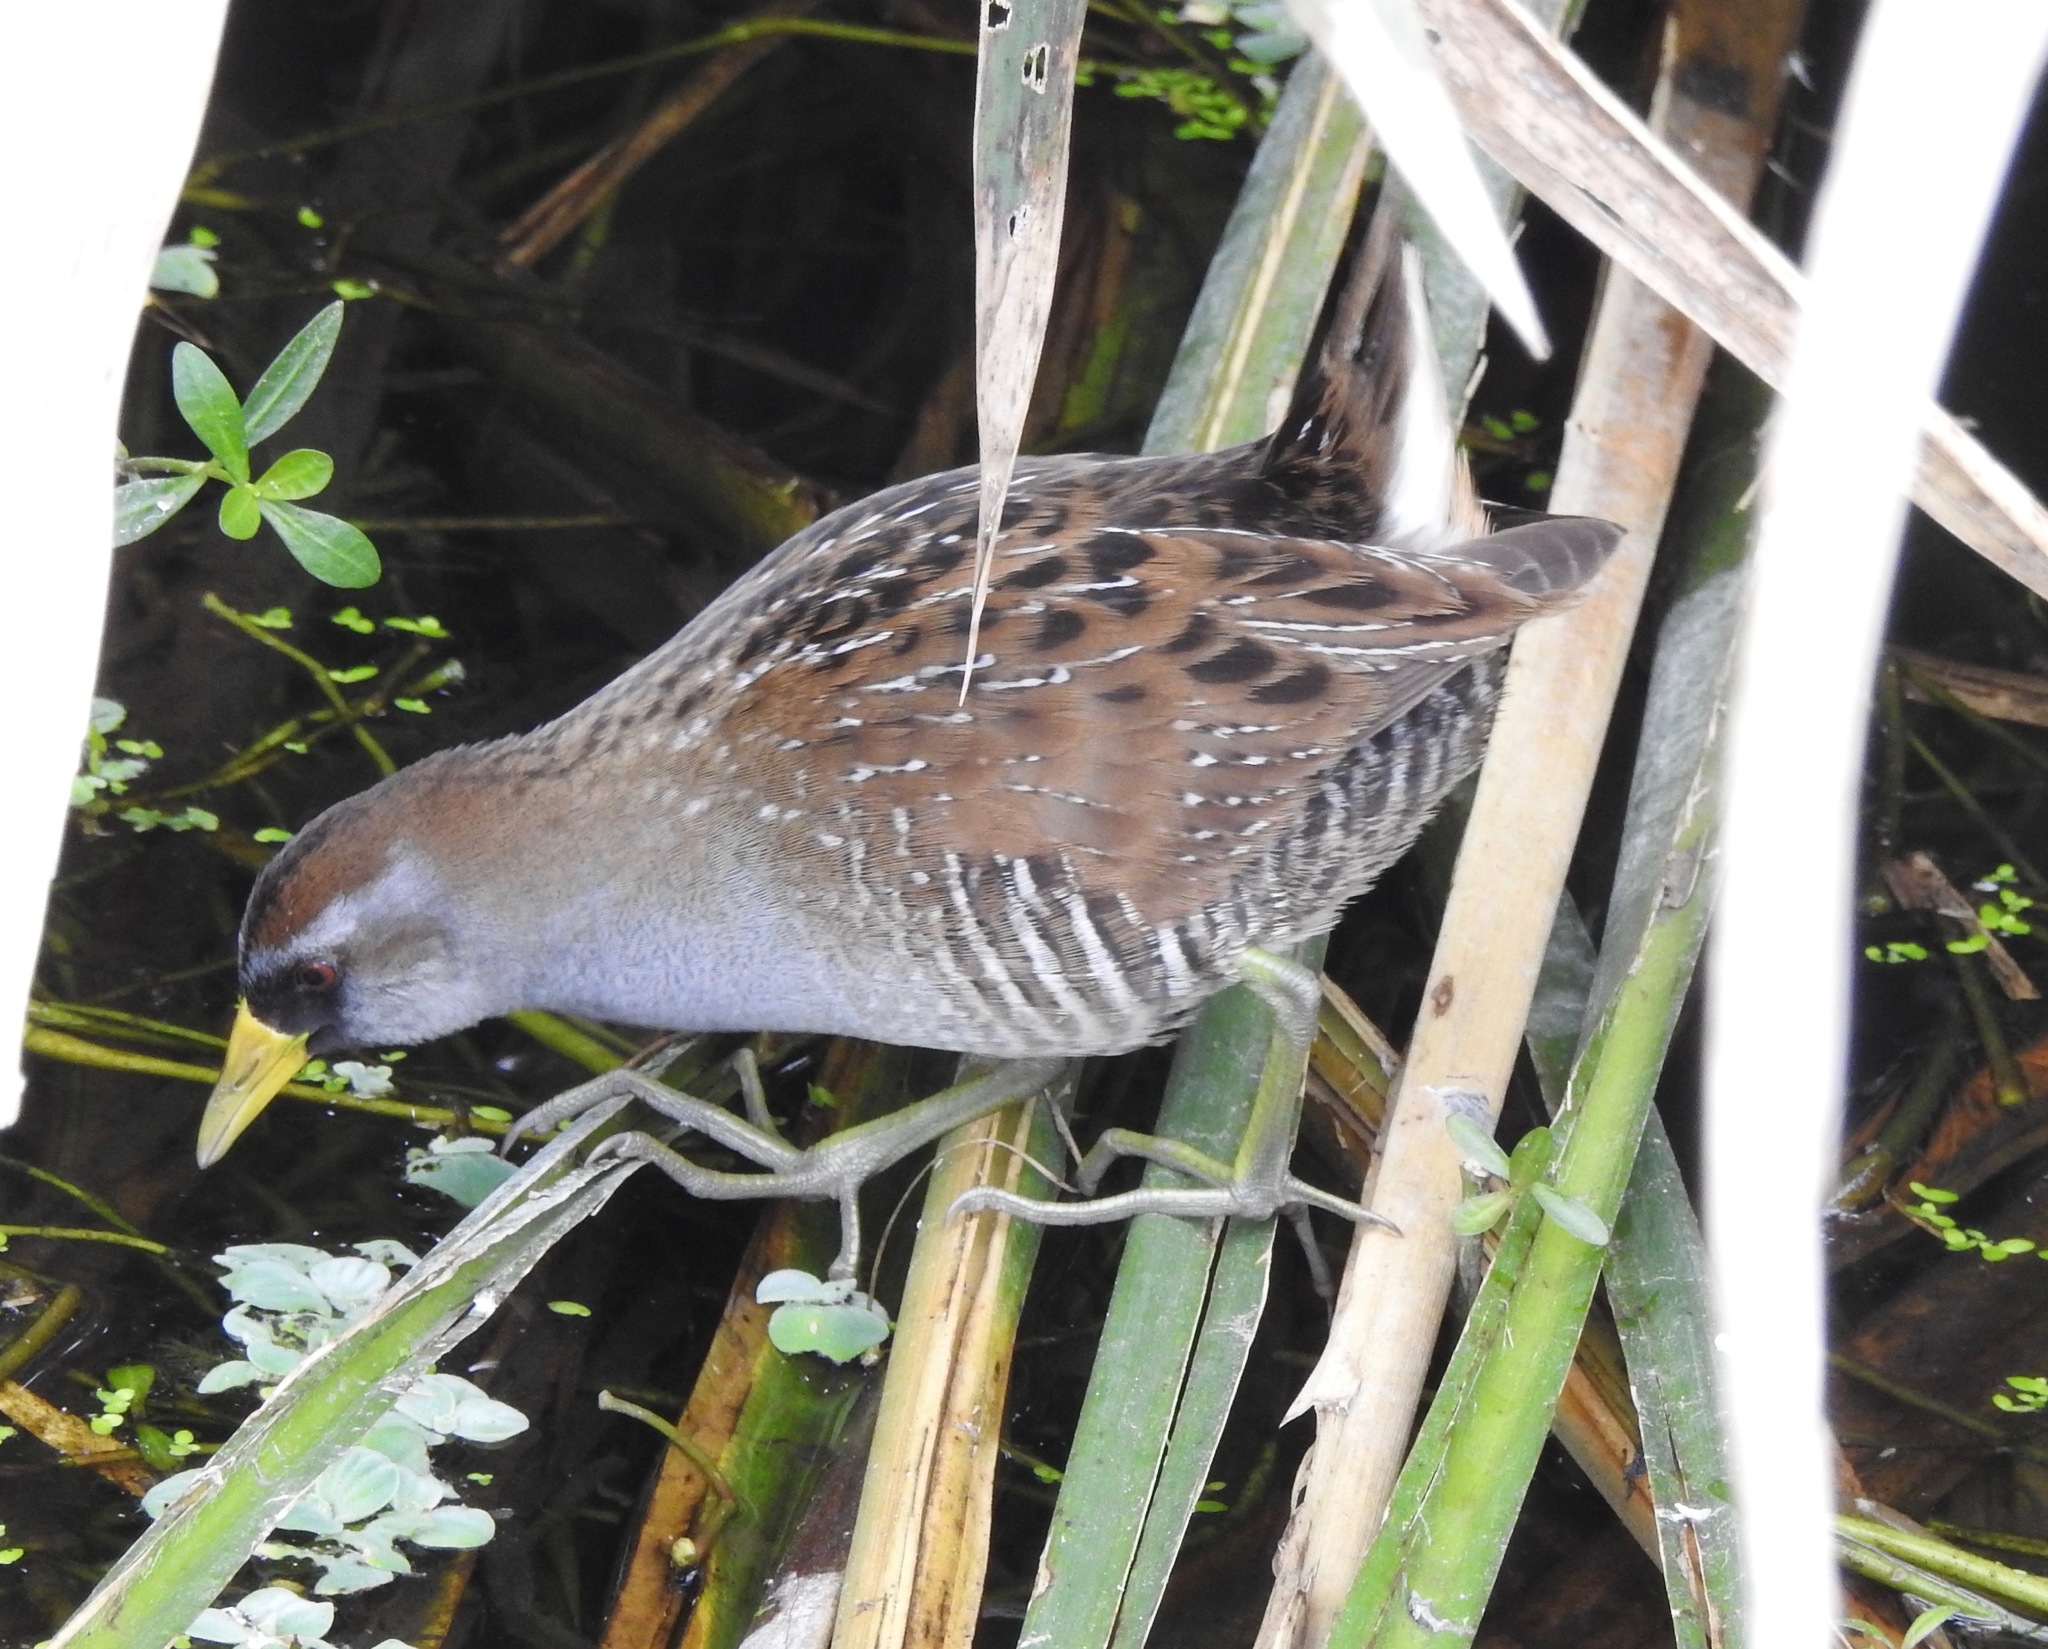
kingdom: Animalia
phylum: Chordata
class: Aves
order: Gruiformes
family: Rallidae
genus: Porzana
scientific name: Porzana carolina
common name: Sora
